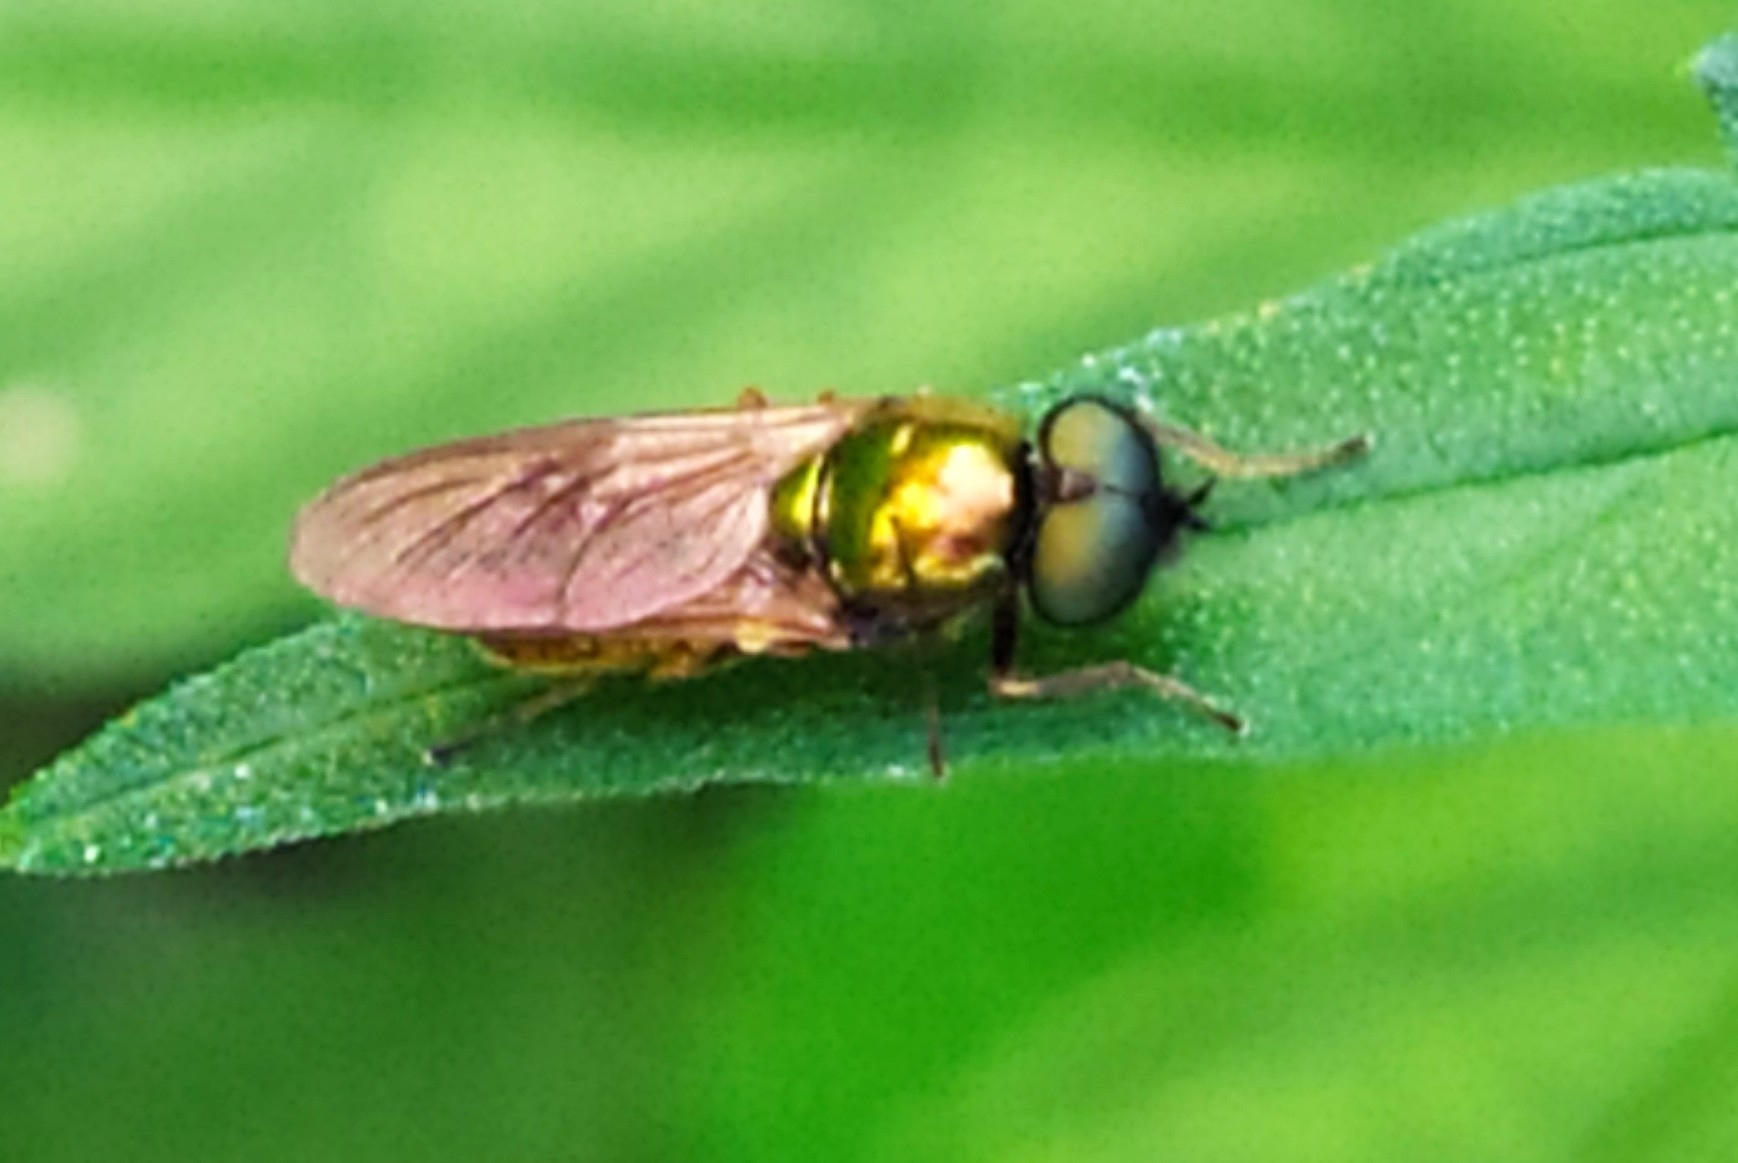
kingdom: Animalia
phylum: Arthropoda
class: Insecta
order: Diptera
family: Stratiomyidae
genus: Chloromyia
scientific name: Chloromyia formosa
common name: Soldier fly
